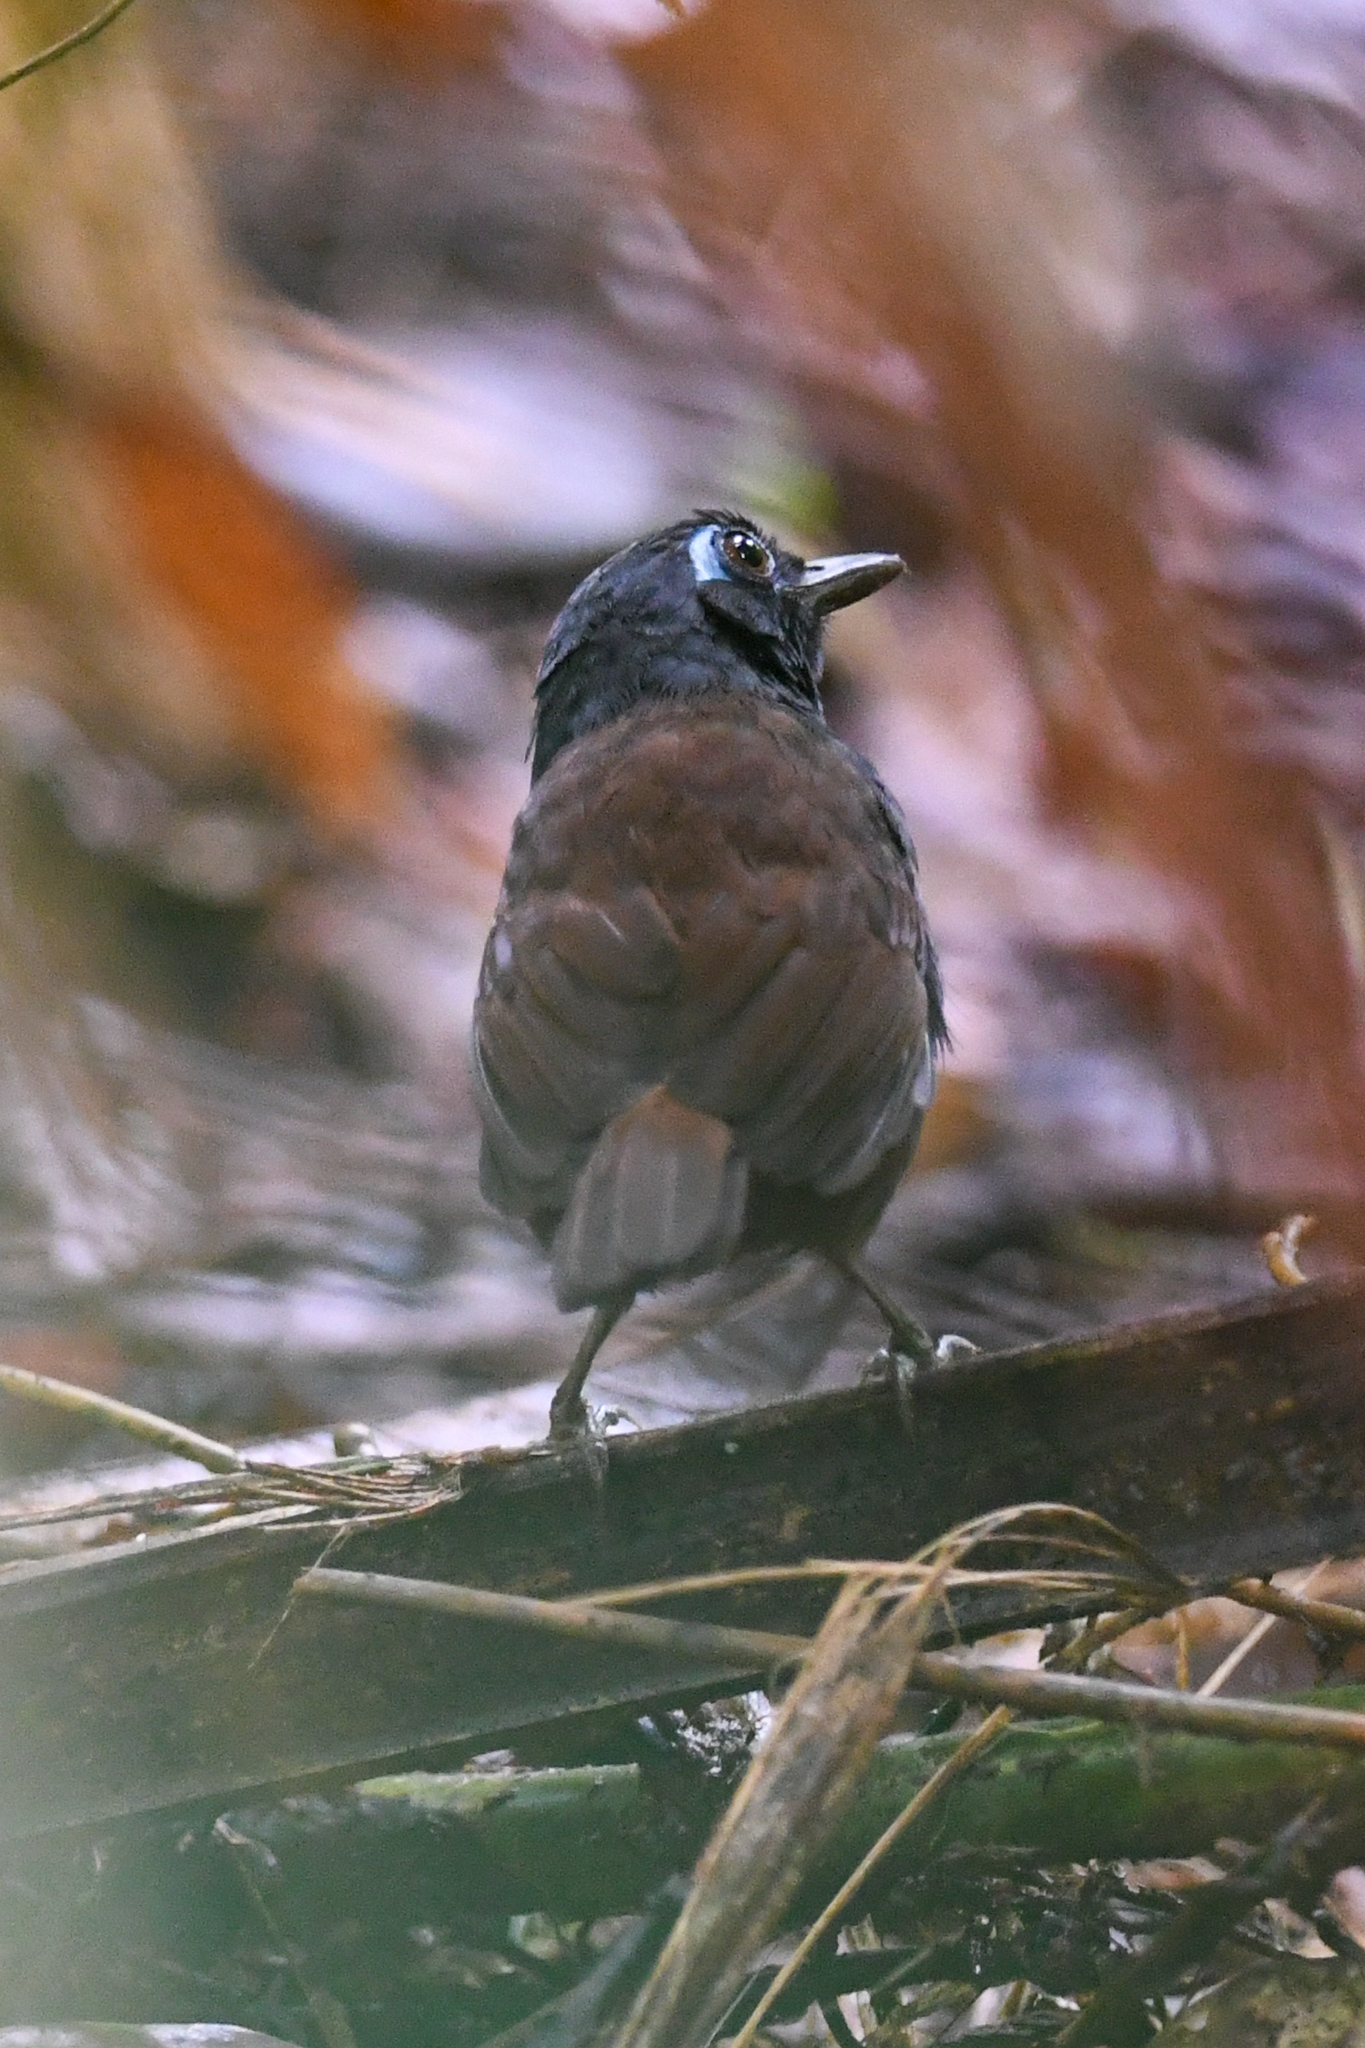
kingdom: Animalia
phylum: Chordata
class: Aves
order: Passeriformes
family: Thamnophilidae
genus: Myrmeciza
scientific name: Myrmeciza exsul
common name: Chestnut-backed antbird
